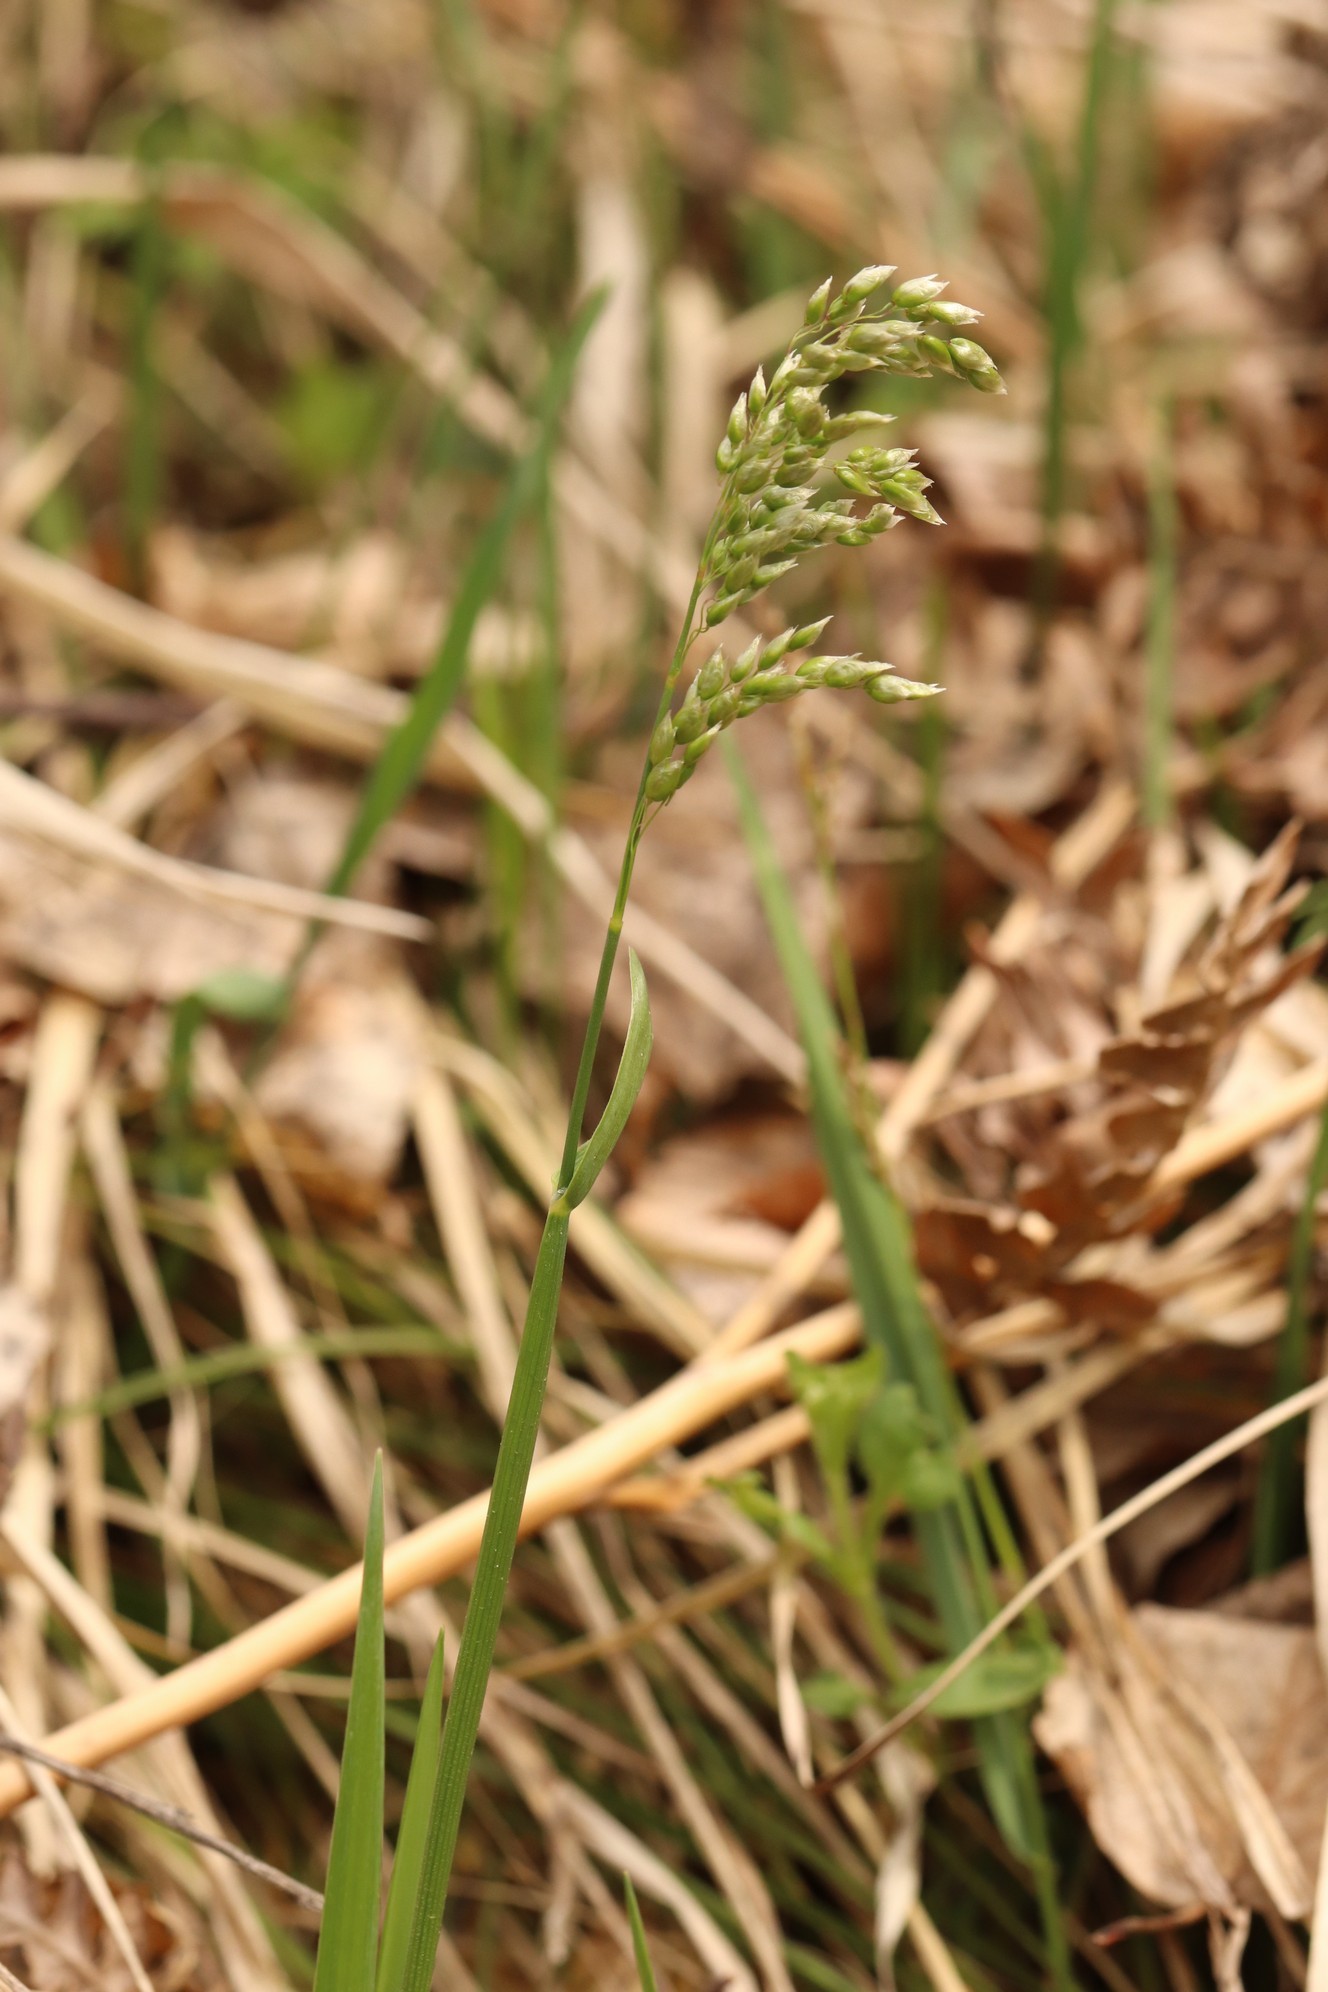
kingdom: Plantae
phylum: Tracheophyta
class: Liliopsida
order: Poales
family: Poaceae
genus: Anthoxanthum
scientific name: Anthoxanthum nitens
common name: Holy grass
